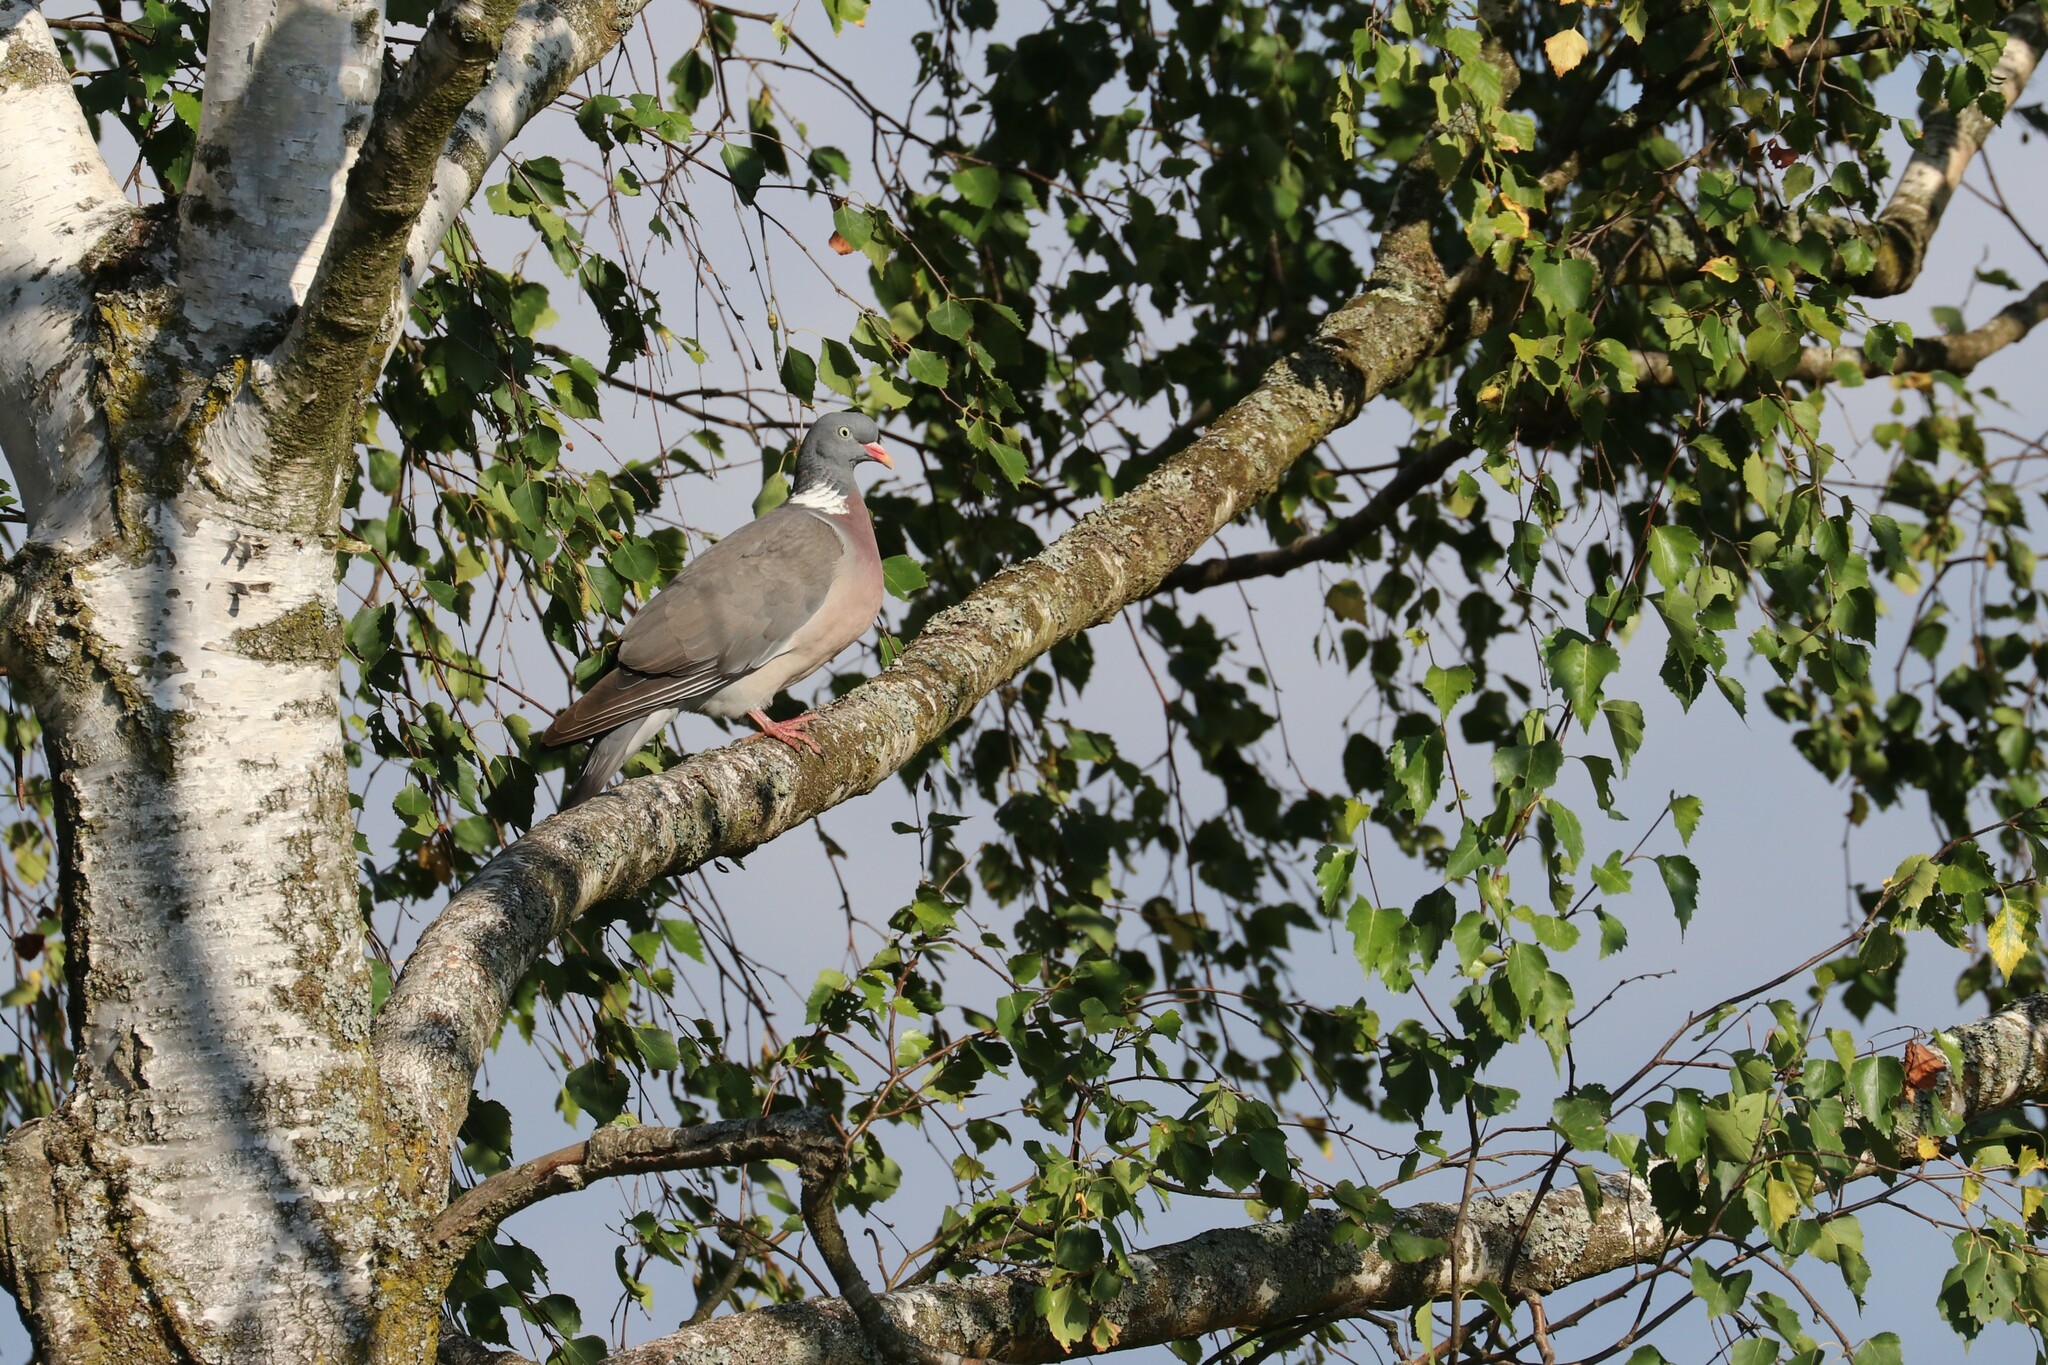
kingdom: Animalia
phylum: Chordata
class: Aves
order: Columbiformes
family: Columbidae
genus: Columba
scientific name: Columba palumbus
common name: Common wood pigeon
